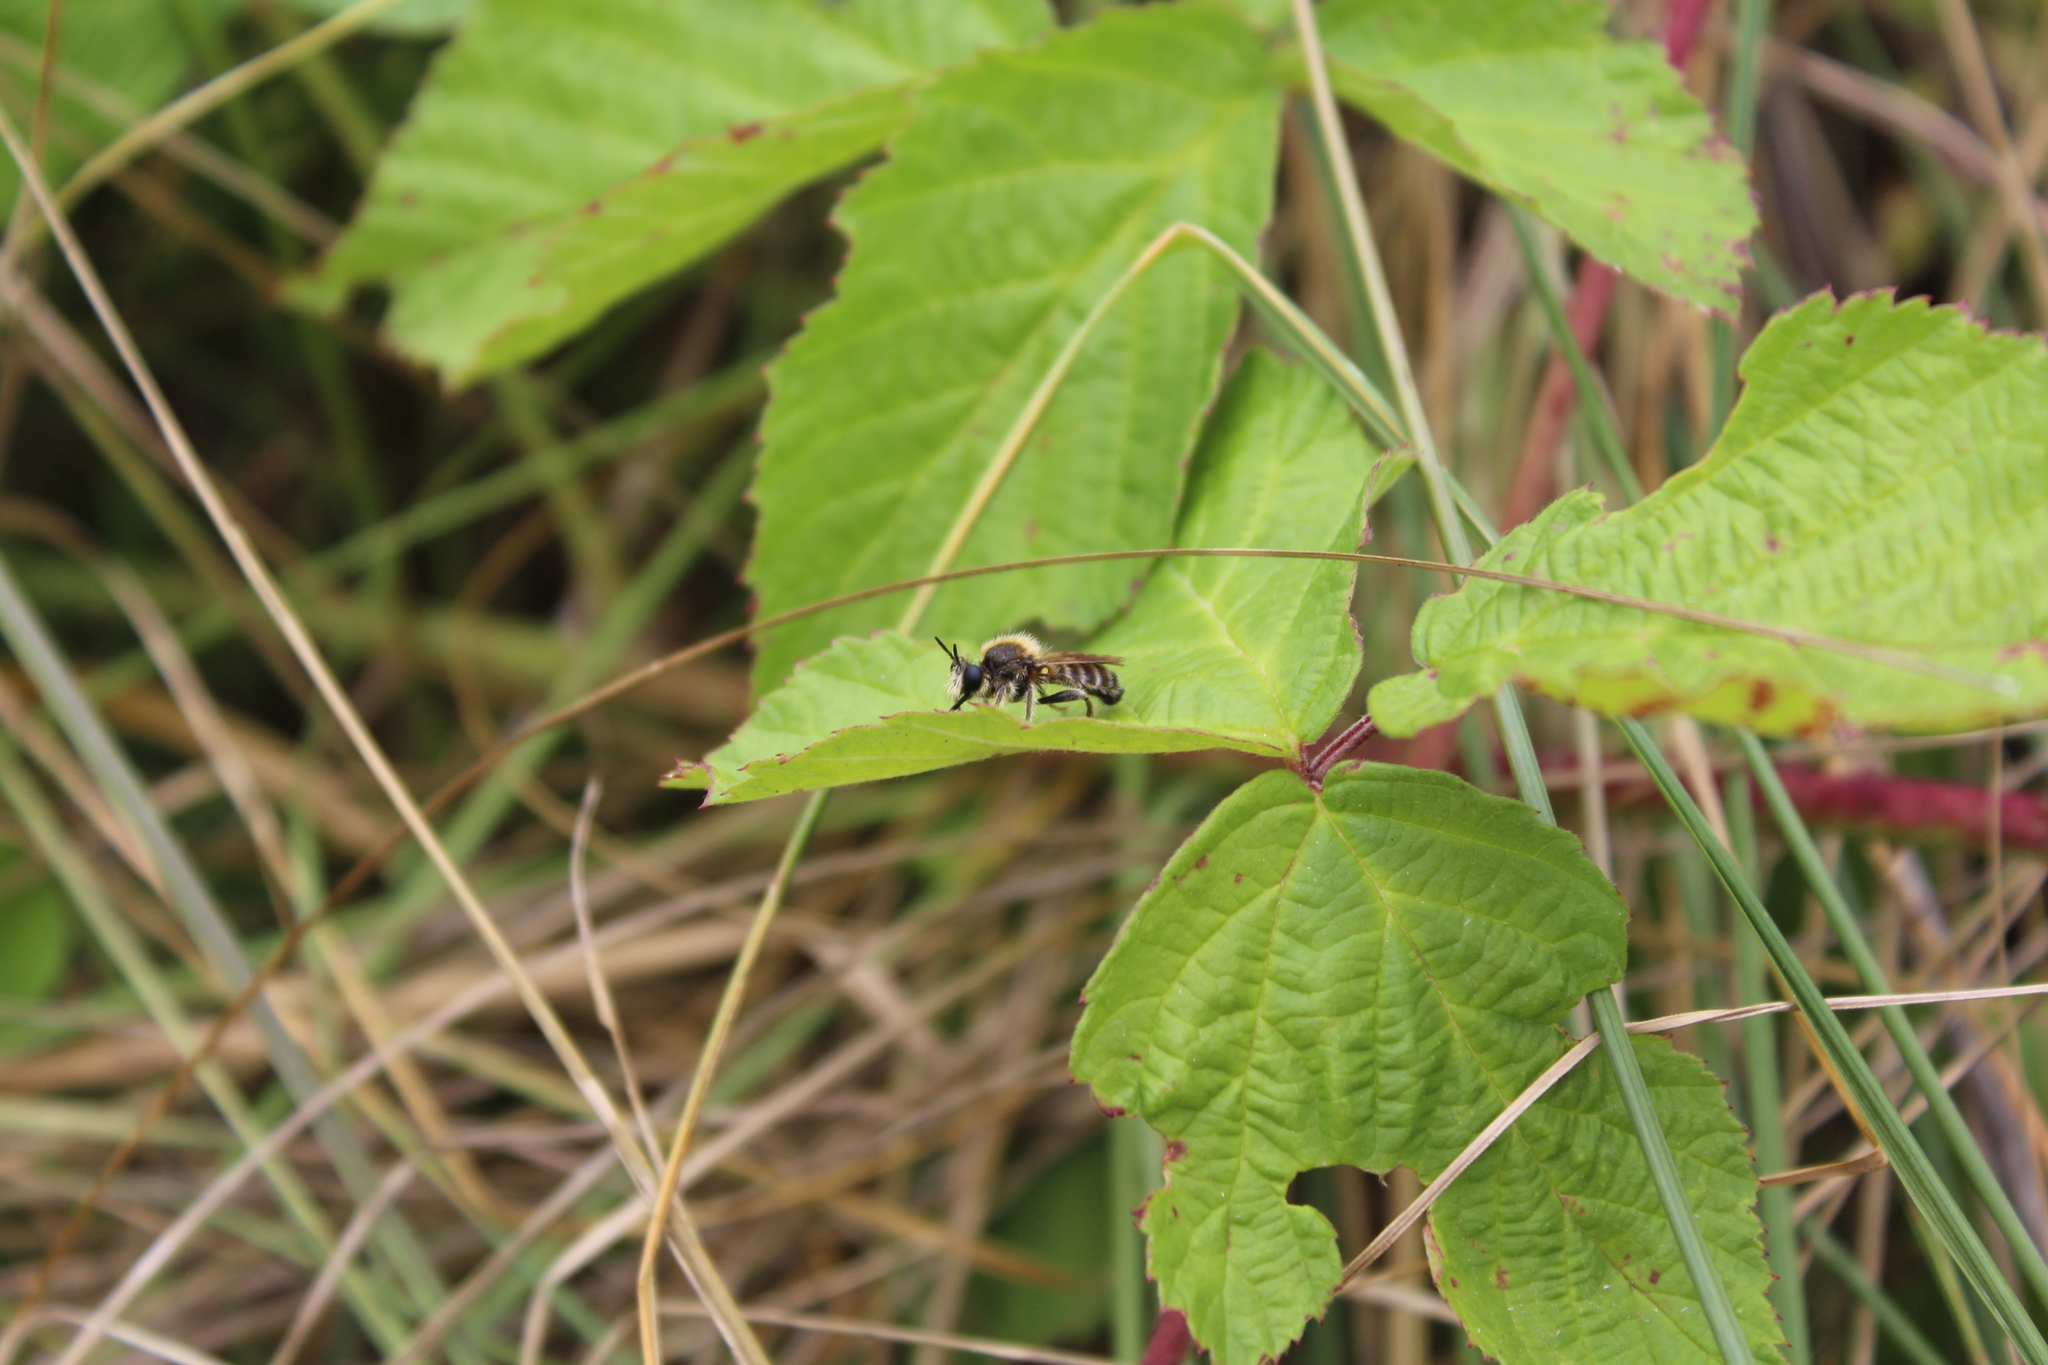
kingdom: Animalia
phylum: Arthropoda
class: Insecta
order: Diptera
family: Asilidae
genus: Lamyra
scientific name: Lamyra fuliginosa
